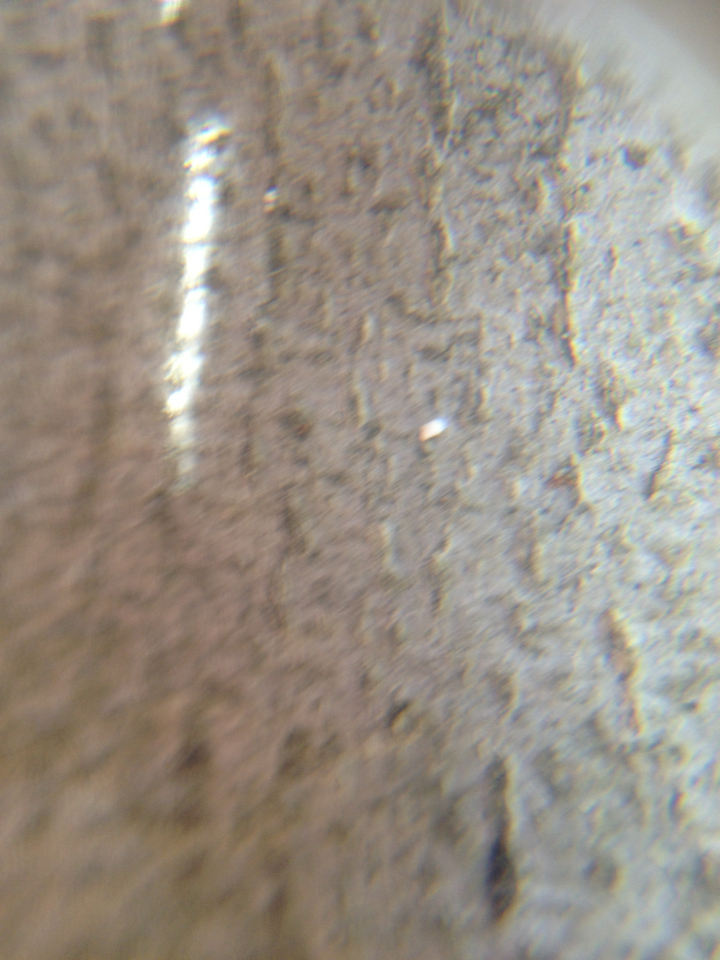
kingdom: Plantae
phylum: Tracheophyta
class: Magnoliopsida
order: Fagales
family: Fagaceae
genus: Fagus
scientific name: Fagus grandifolia
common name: American beech
